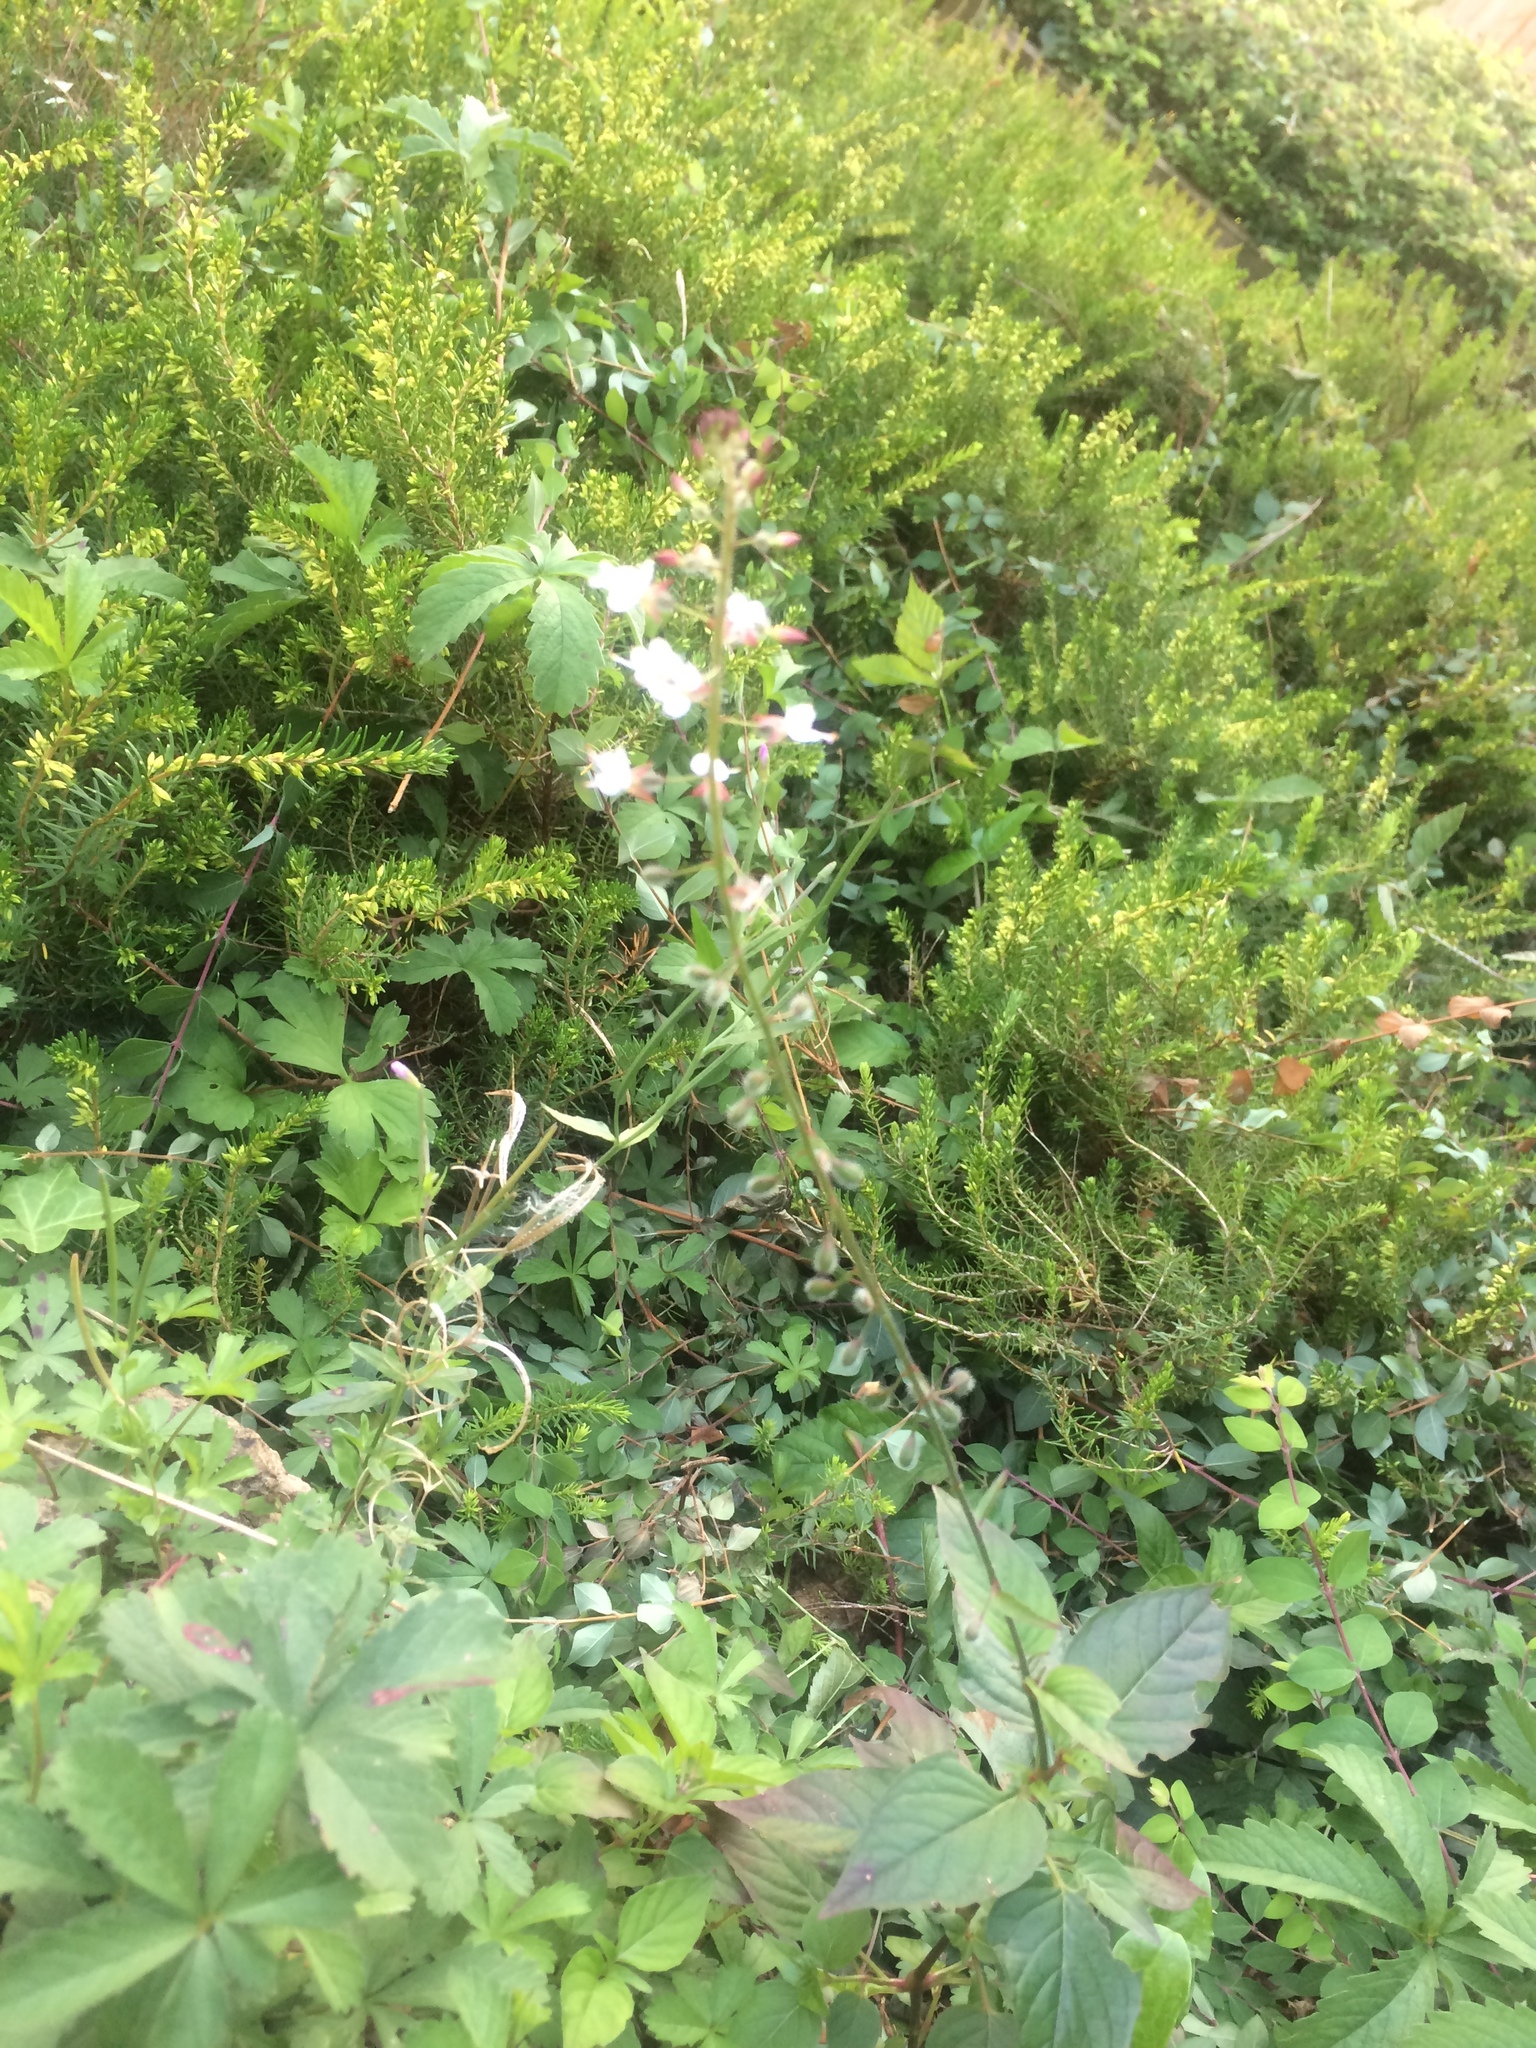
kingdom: Plantae
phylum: Tracheophyta
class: Magnoliopsida
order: Myrtales
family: Onagraceae
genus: Circaea
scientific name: Circaea lutetiana
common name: Enchanter's-nightshade
